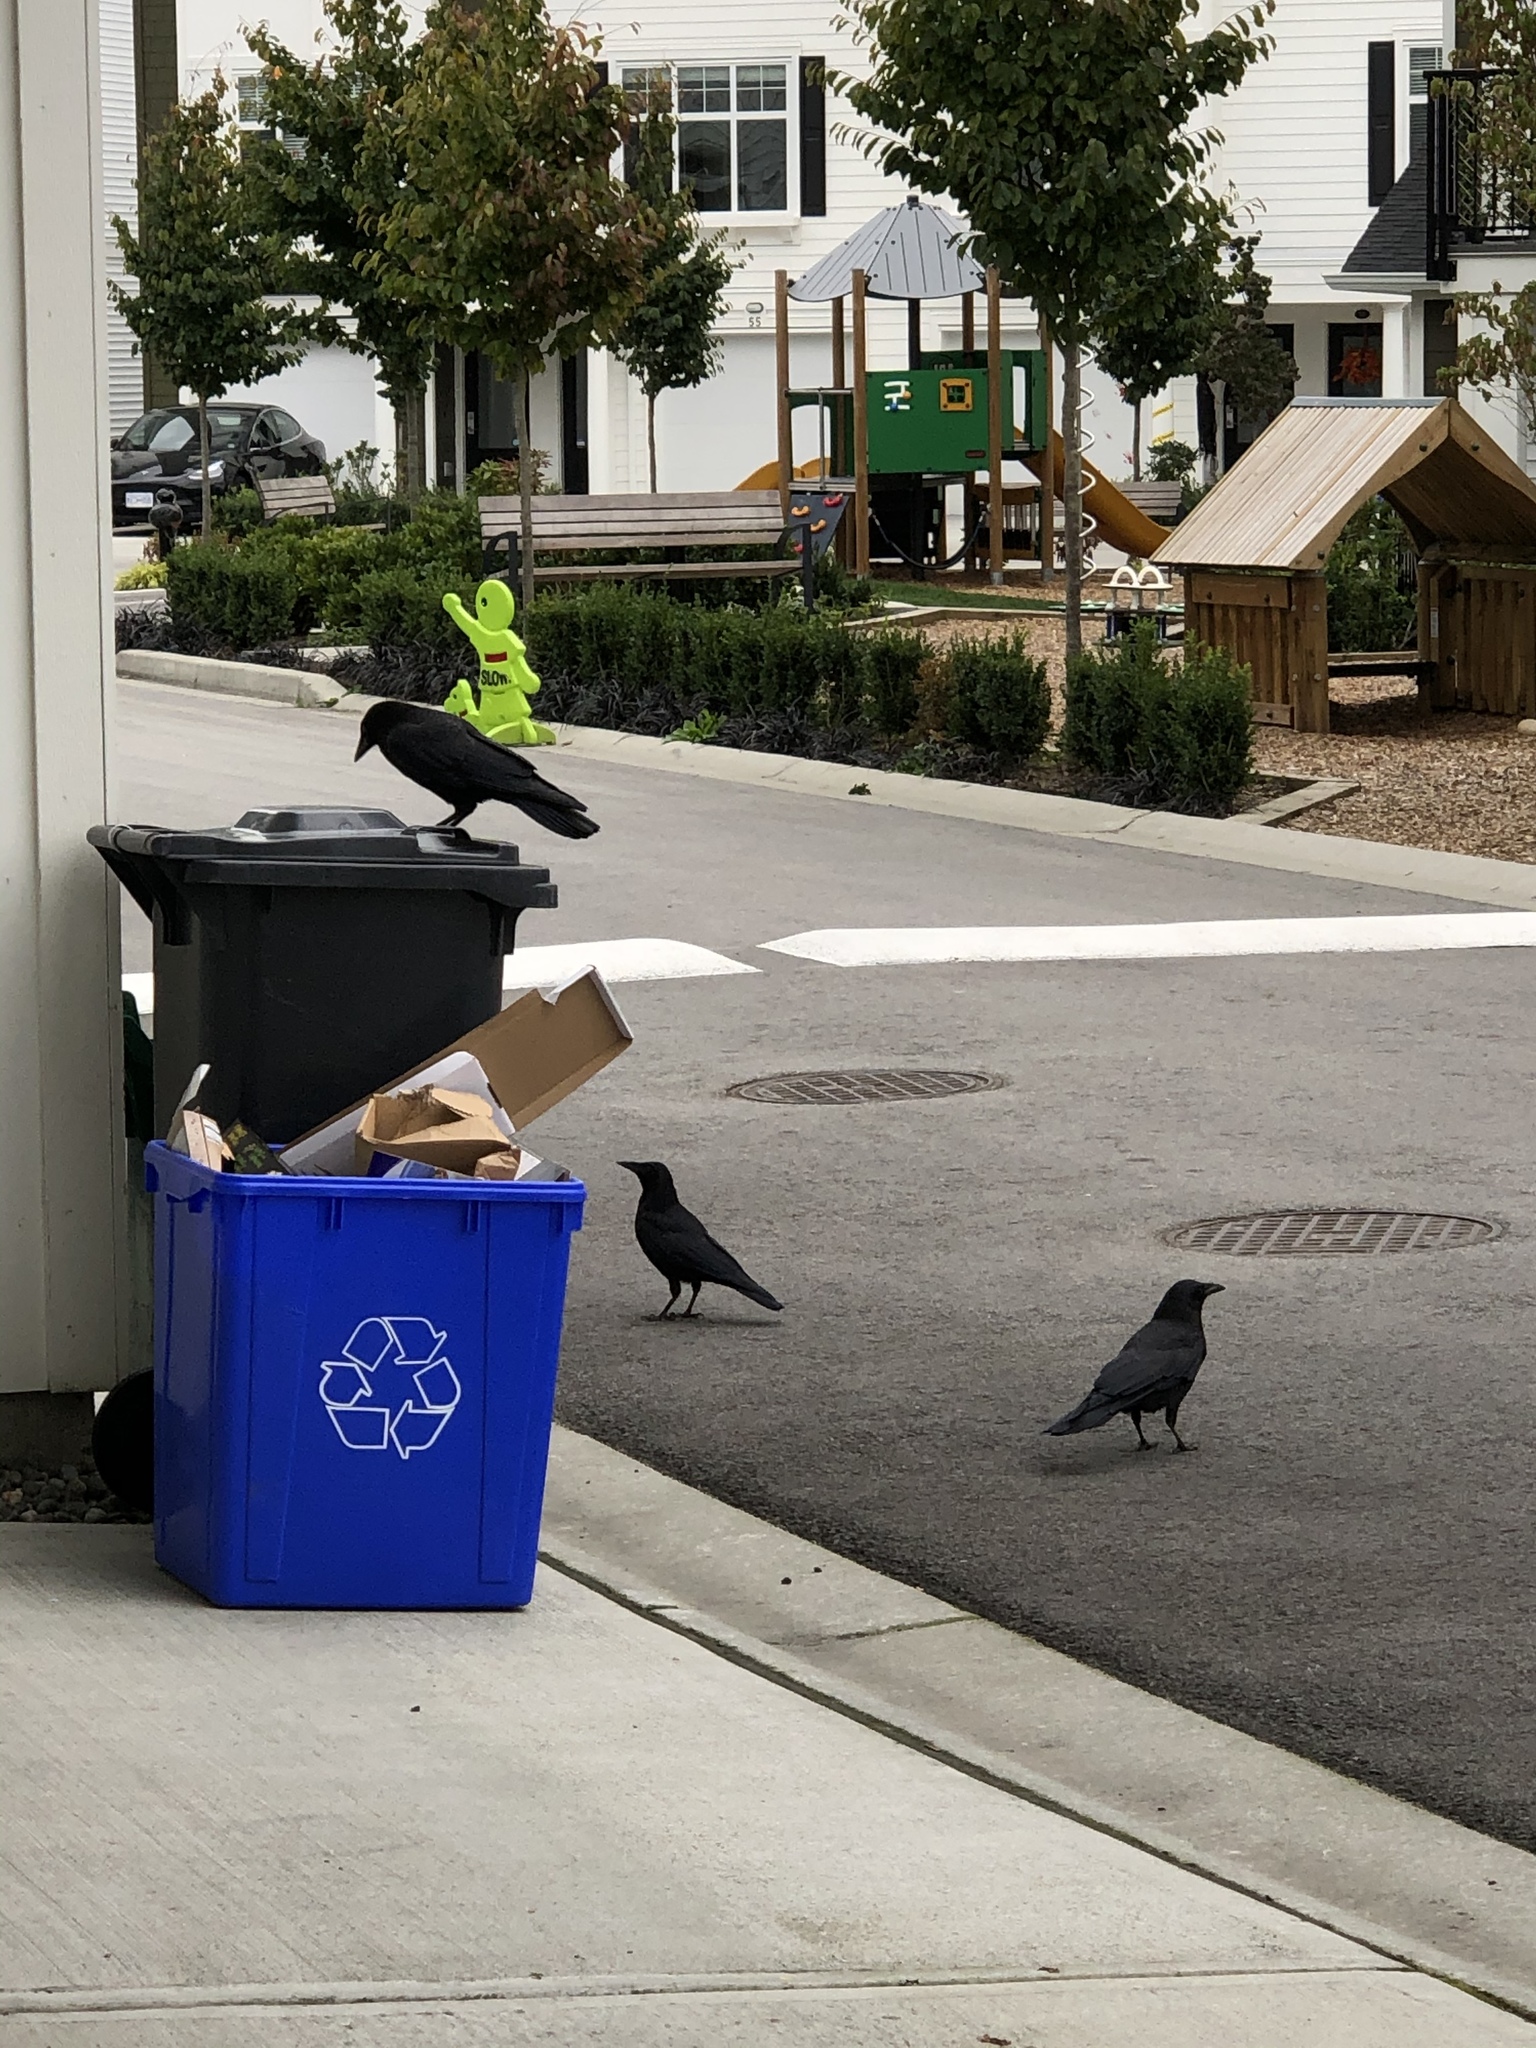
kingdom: Animalia
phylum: Chordata
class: Aves
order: Passeriformes
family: Corvidae
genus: Corvus
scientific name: Corvus brachyrhynchos
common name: American crow
